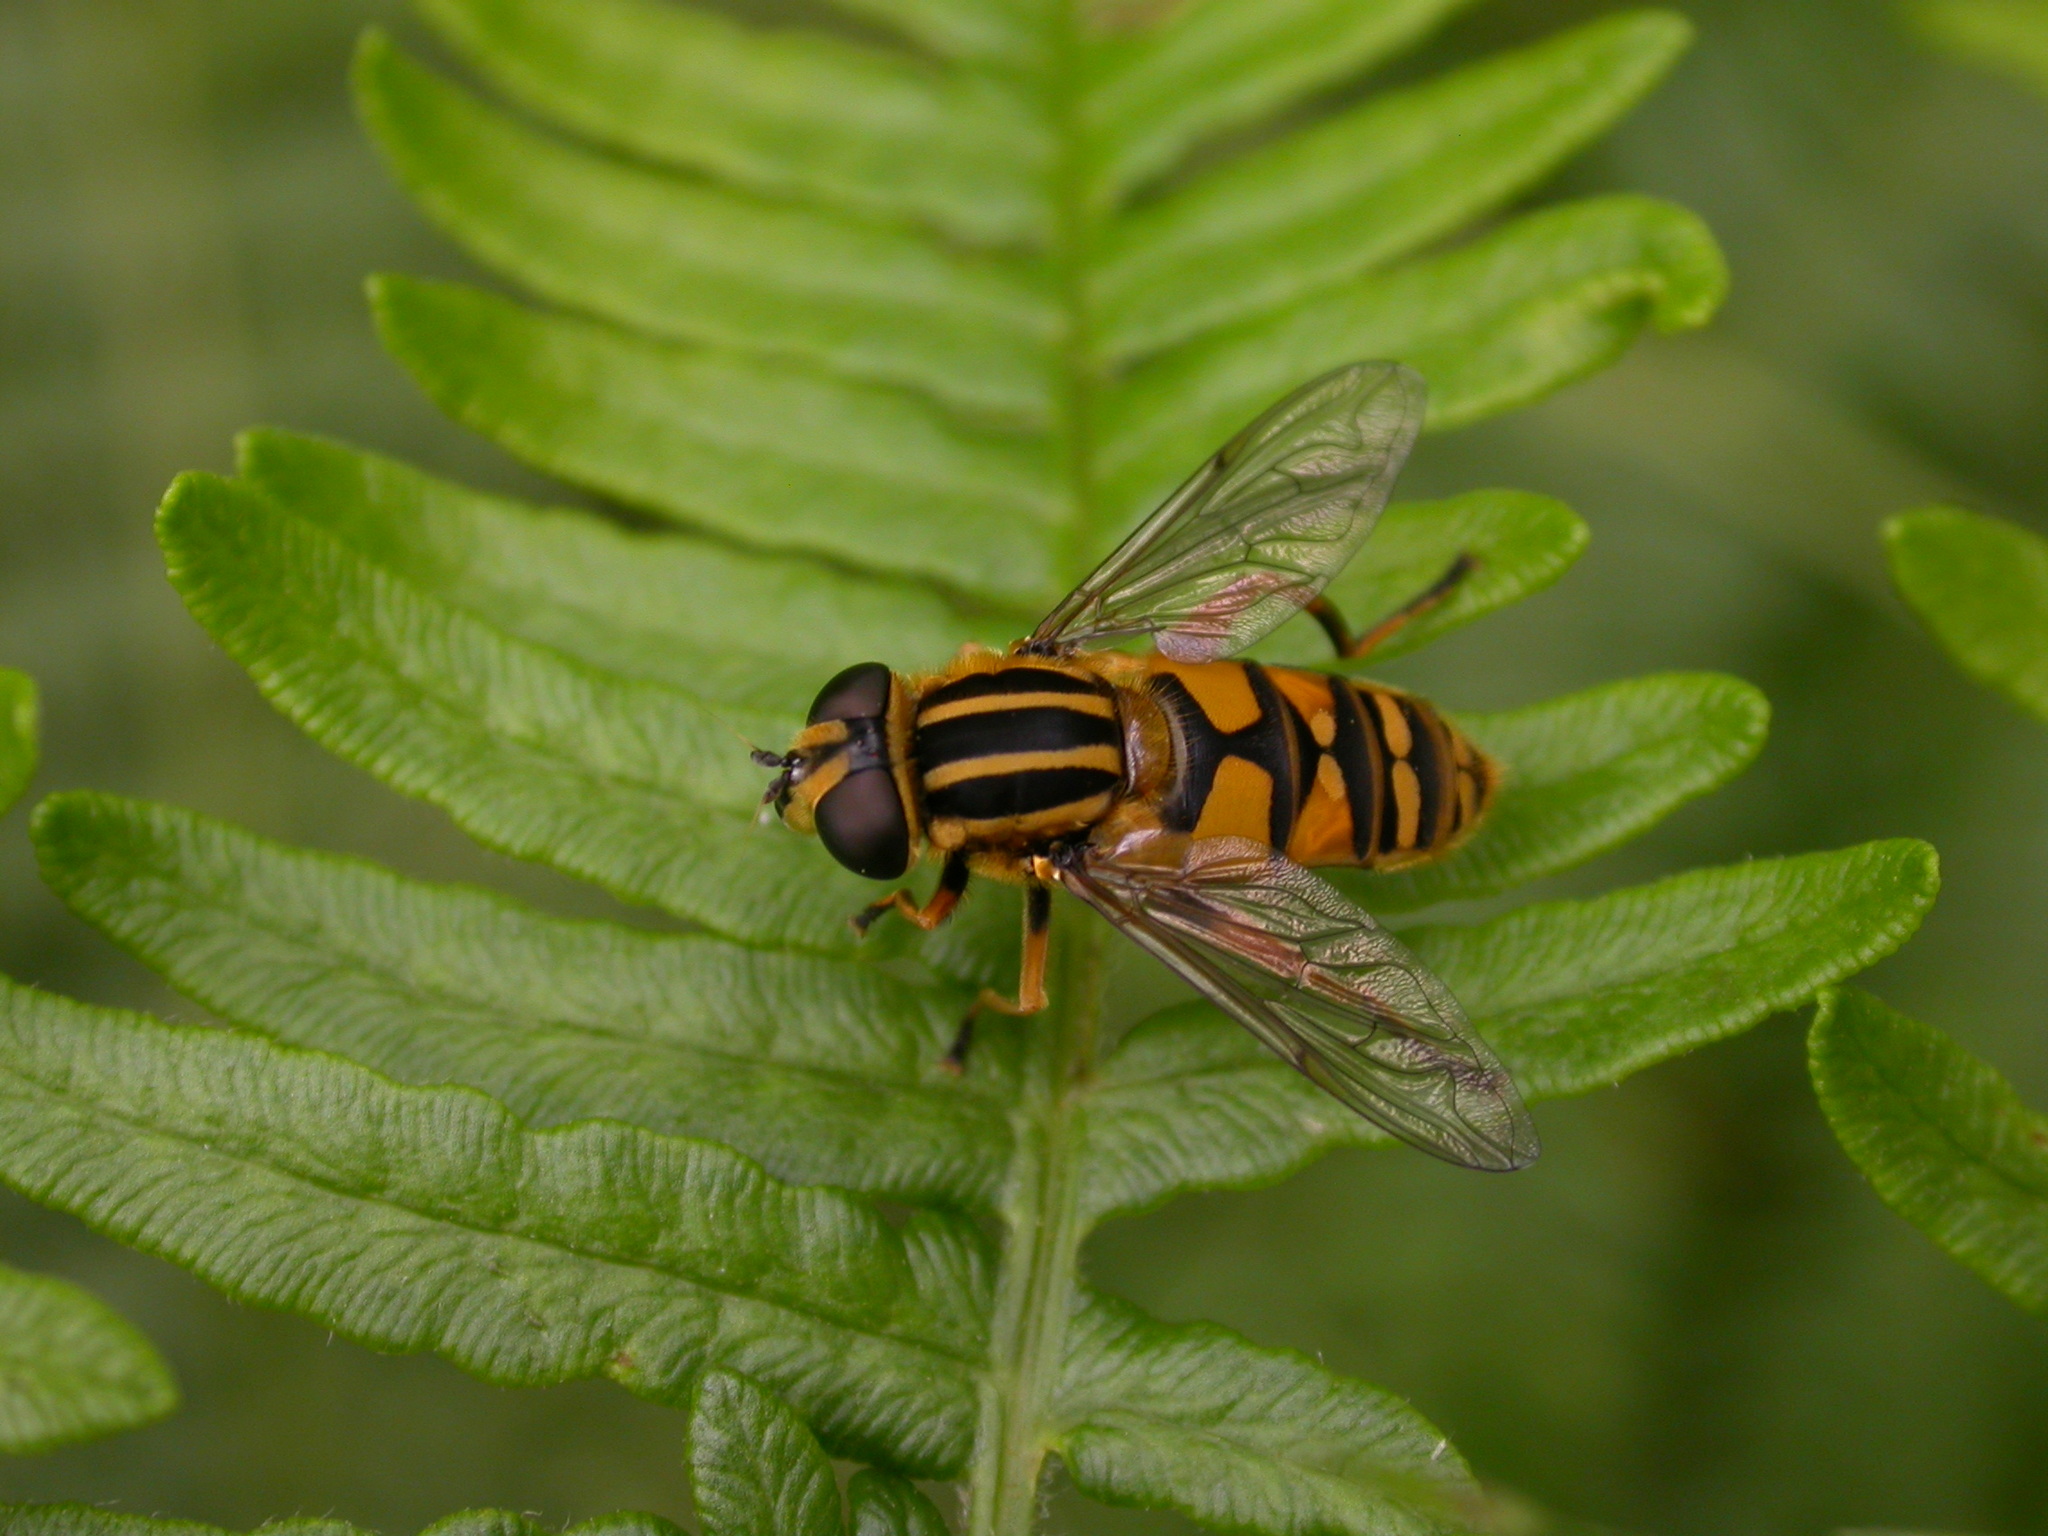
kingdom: Animalia
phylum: Arthropoda
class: Insecta
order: Diptera
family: Syrphidae
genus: Helophilus
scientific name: Helophilus pendulus
